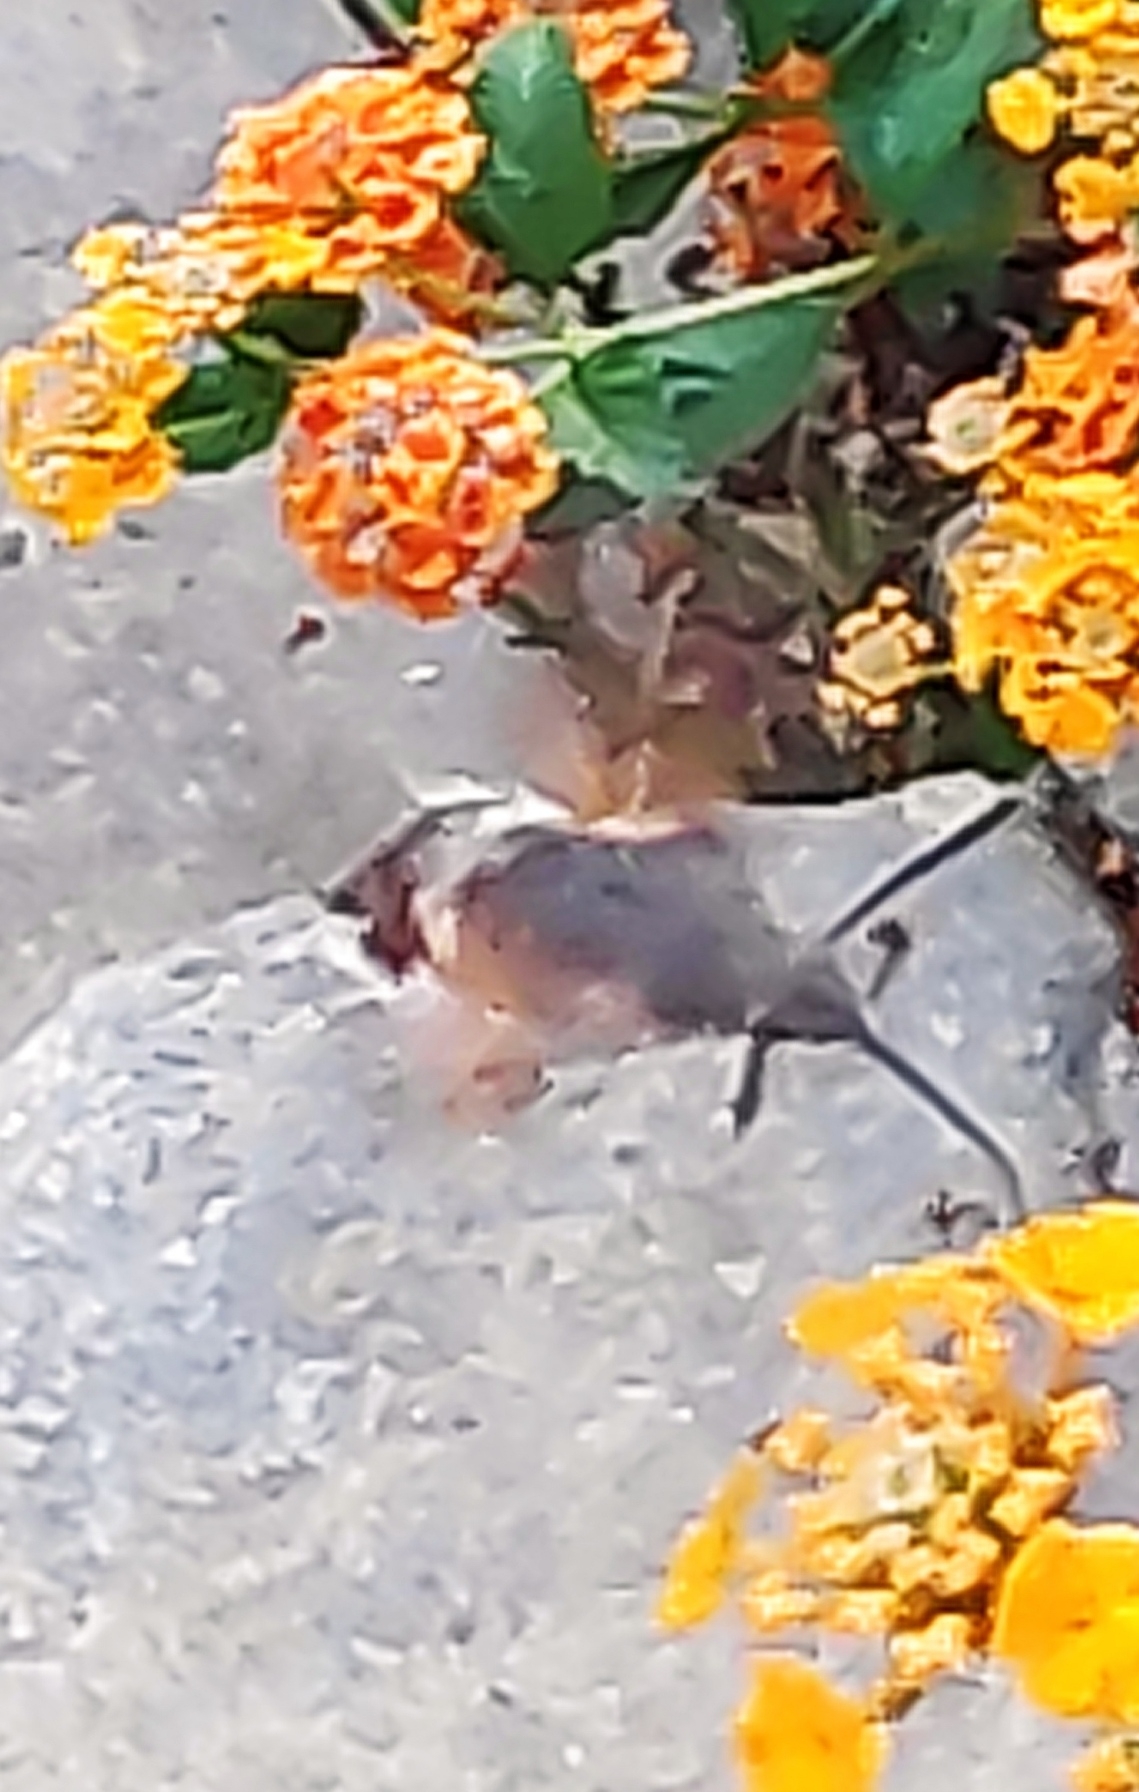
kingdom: Animalia
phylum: Arthropoda
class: Insecta
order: Lepidoptera
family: Sphingidae
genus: Macroglossum
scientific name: Macroglossum stellatarum
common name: Humming-bird hawk-moth
